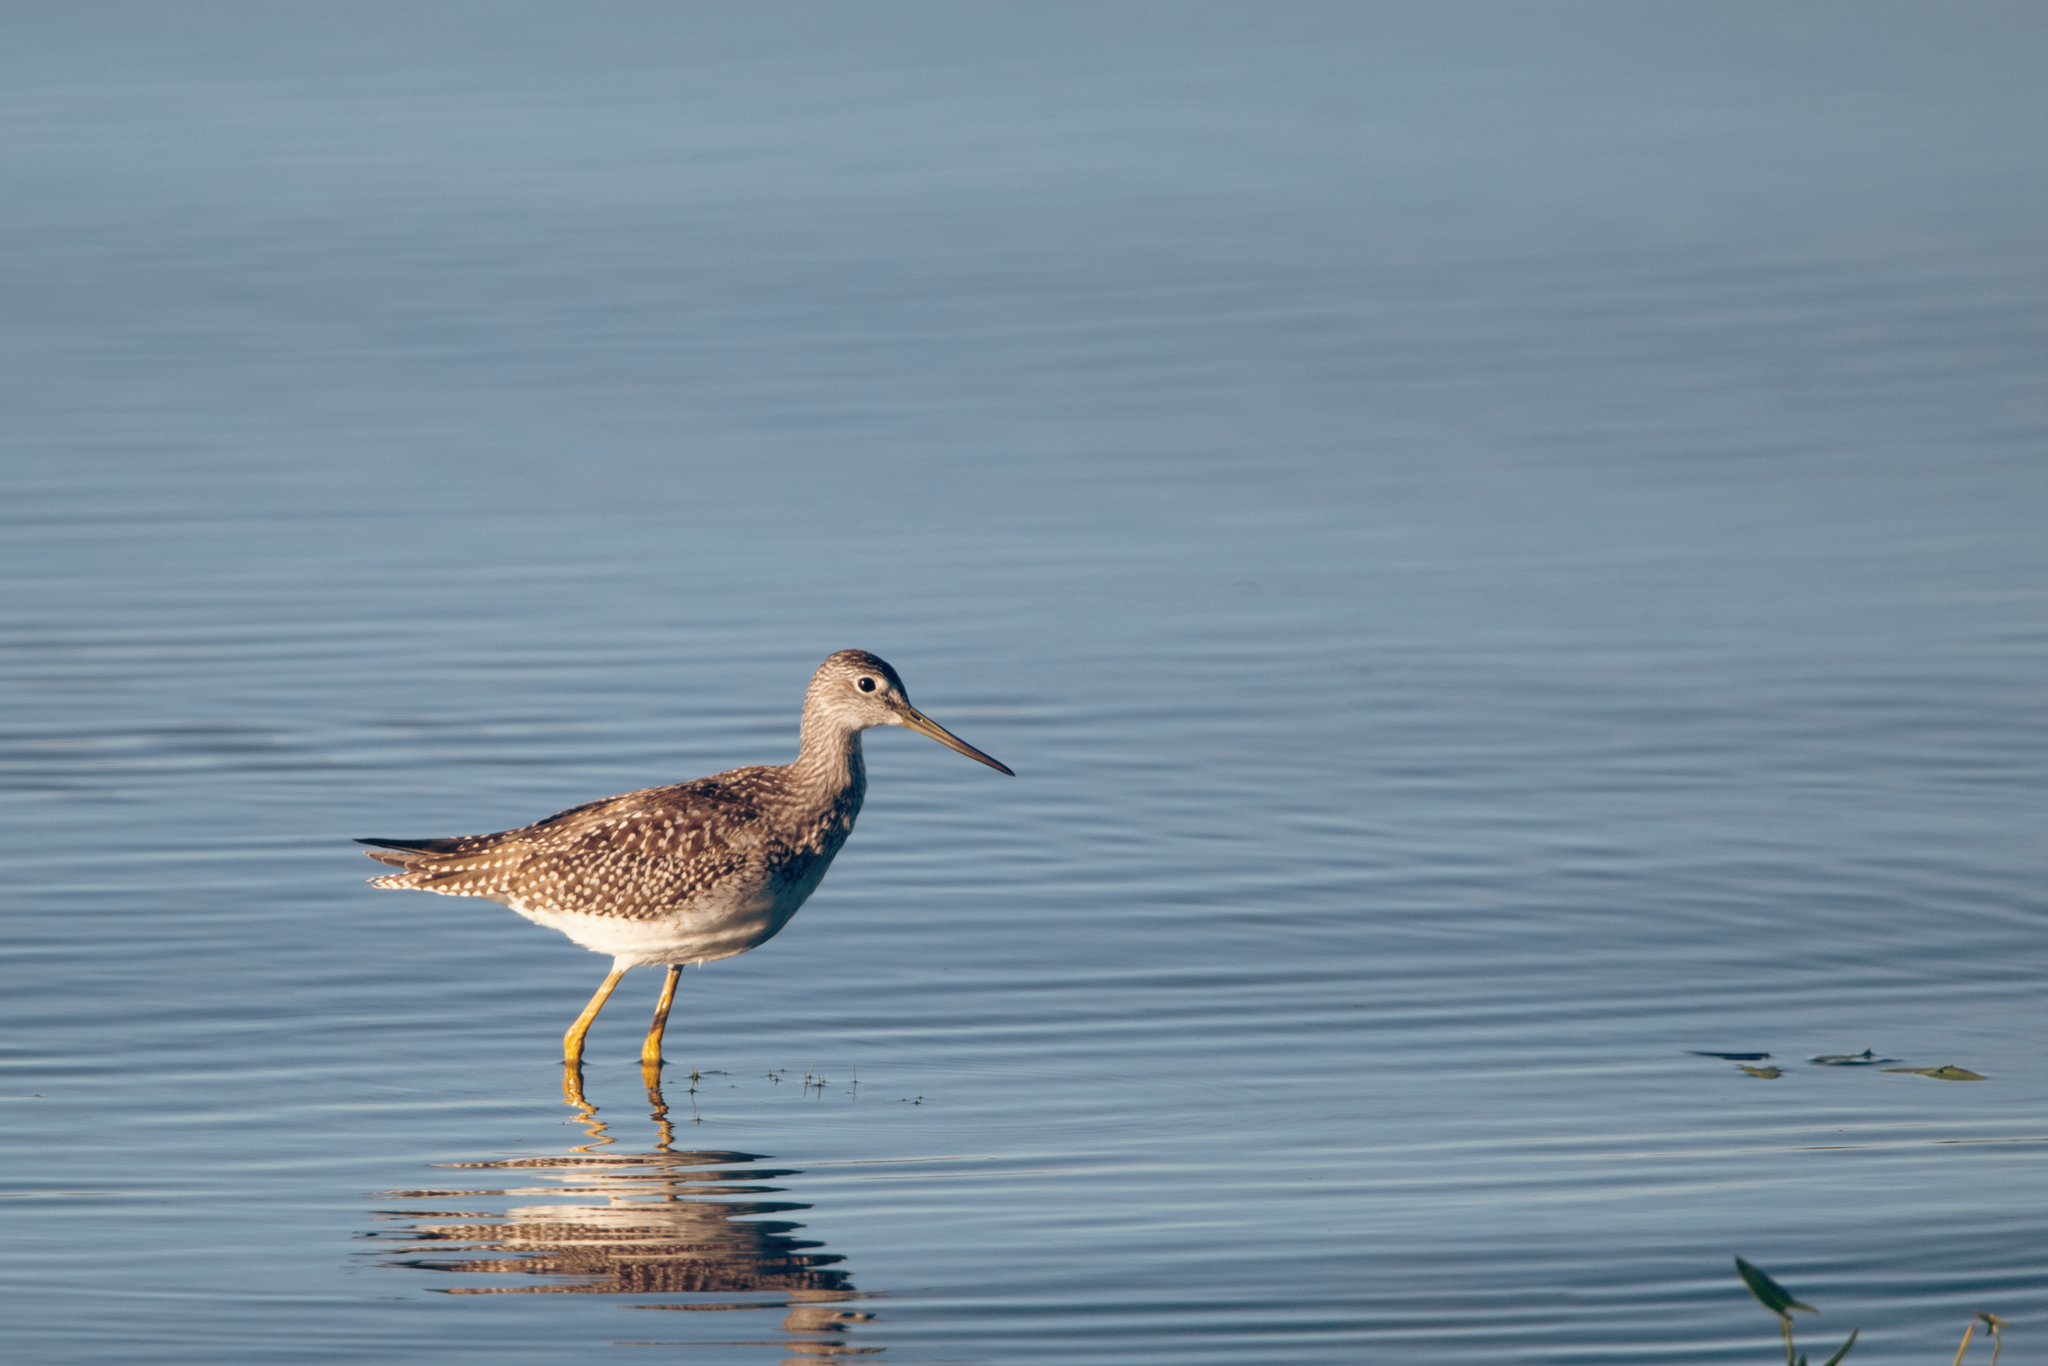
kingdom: Animalia
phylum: Chordata
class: Aves
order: Charadriiformes
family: Scolopacidae
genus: Tringa
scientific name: Tringa melanoleuca
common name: Greater yellowlegs
